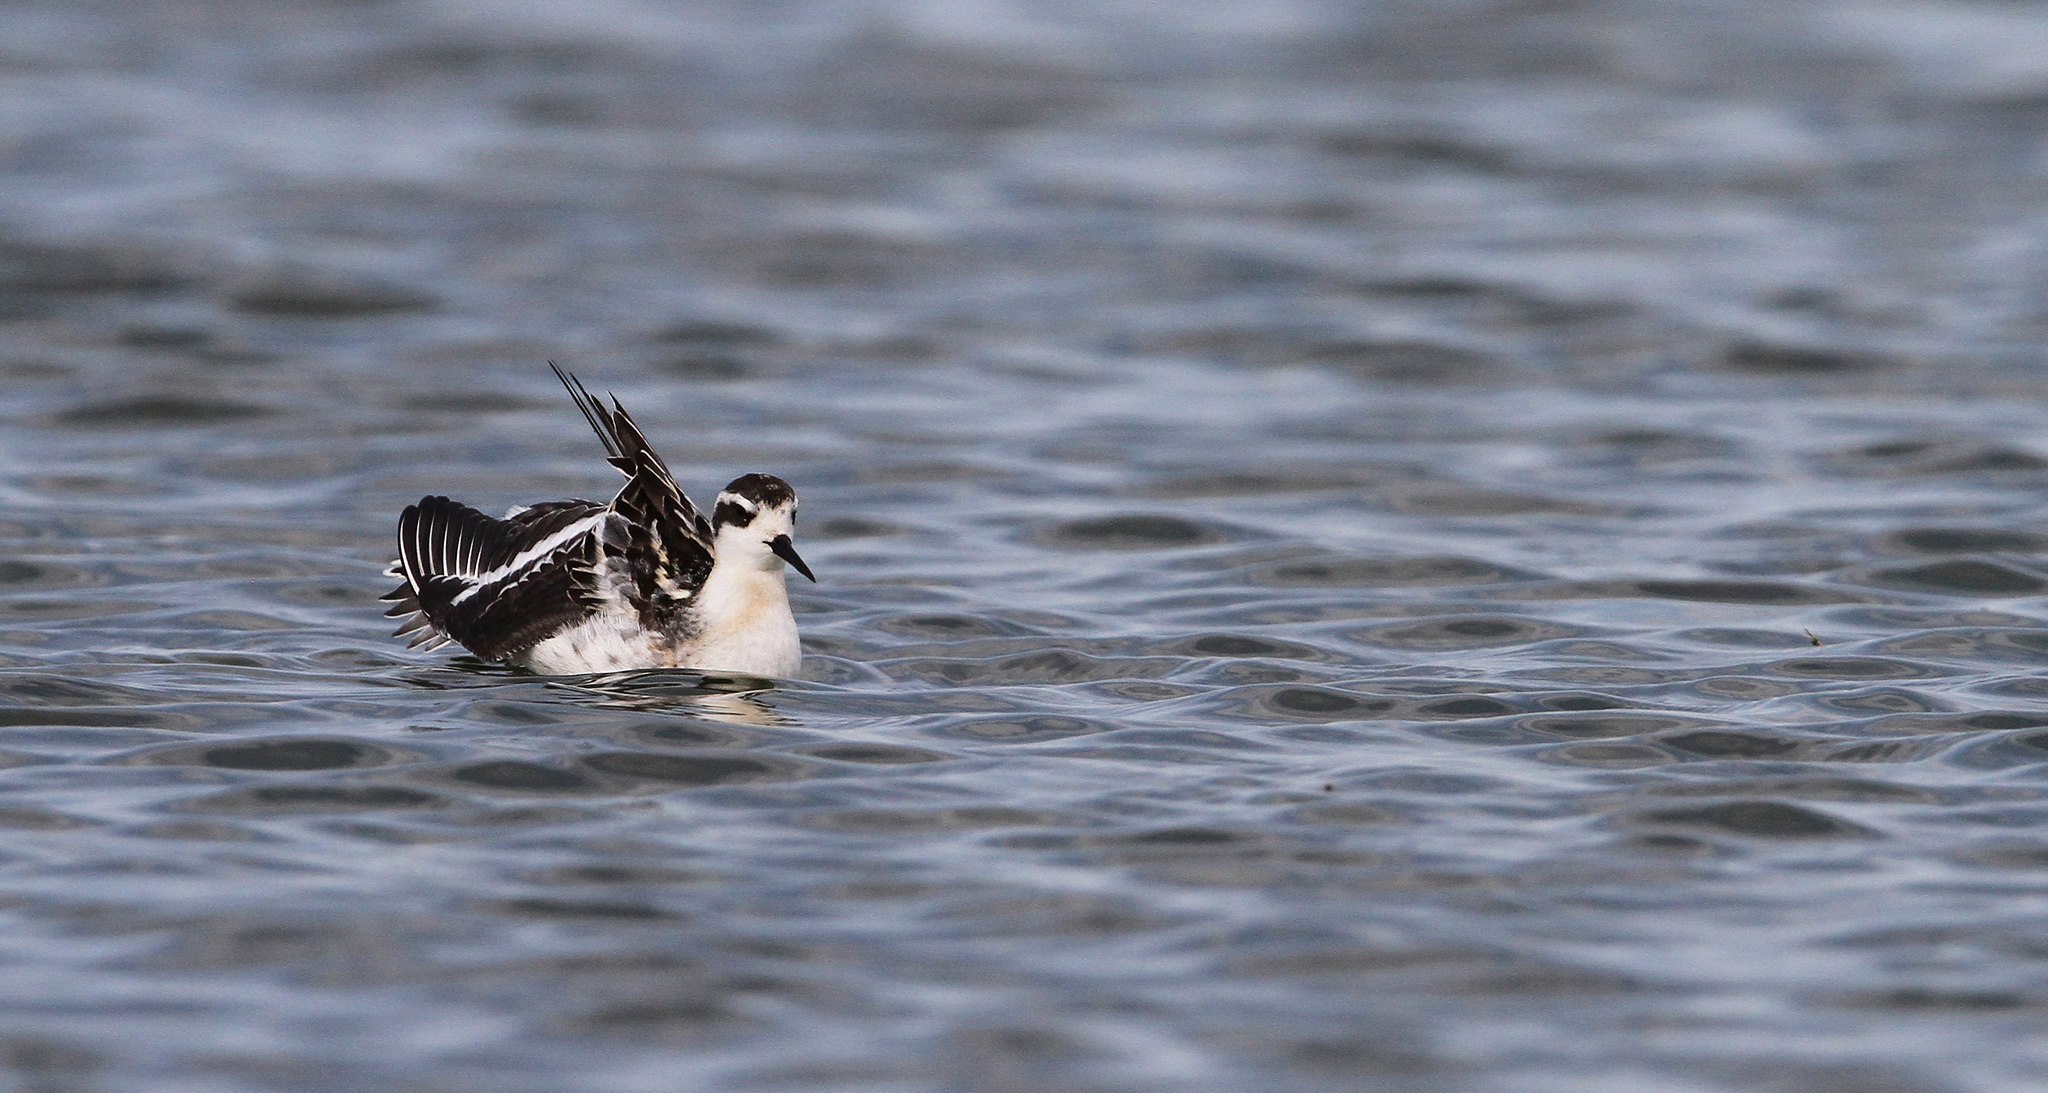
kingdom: Animalia
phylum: Chordata
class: Aves
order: Charadriiformes
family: Scolopacidae
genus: Phalaropus
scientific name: Phalaropus lobatus
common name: Red-necked phalarope
